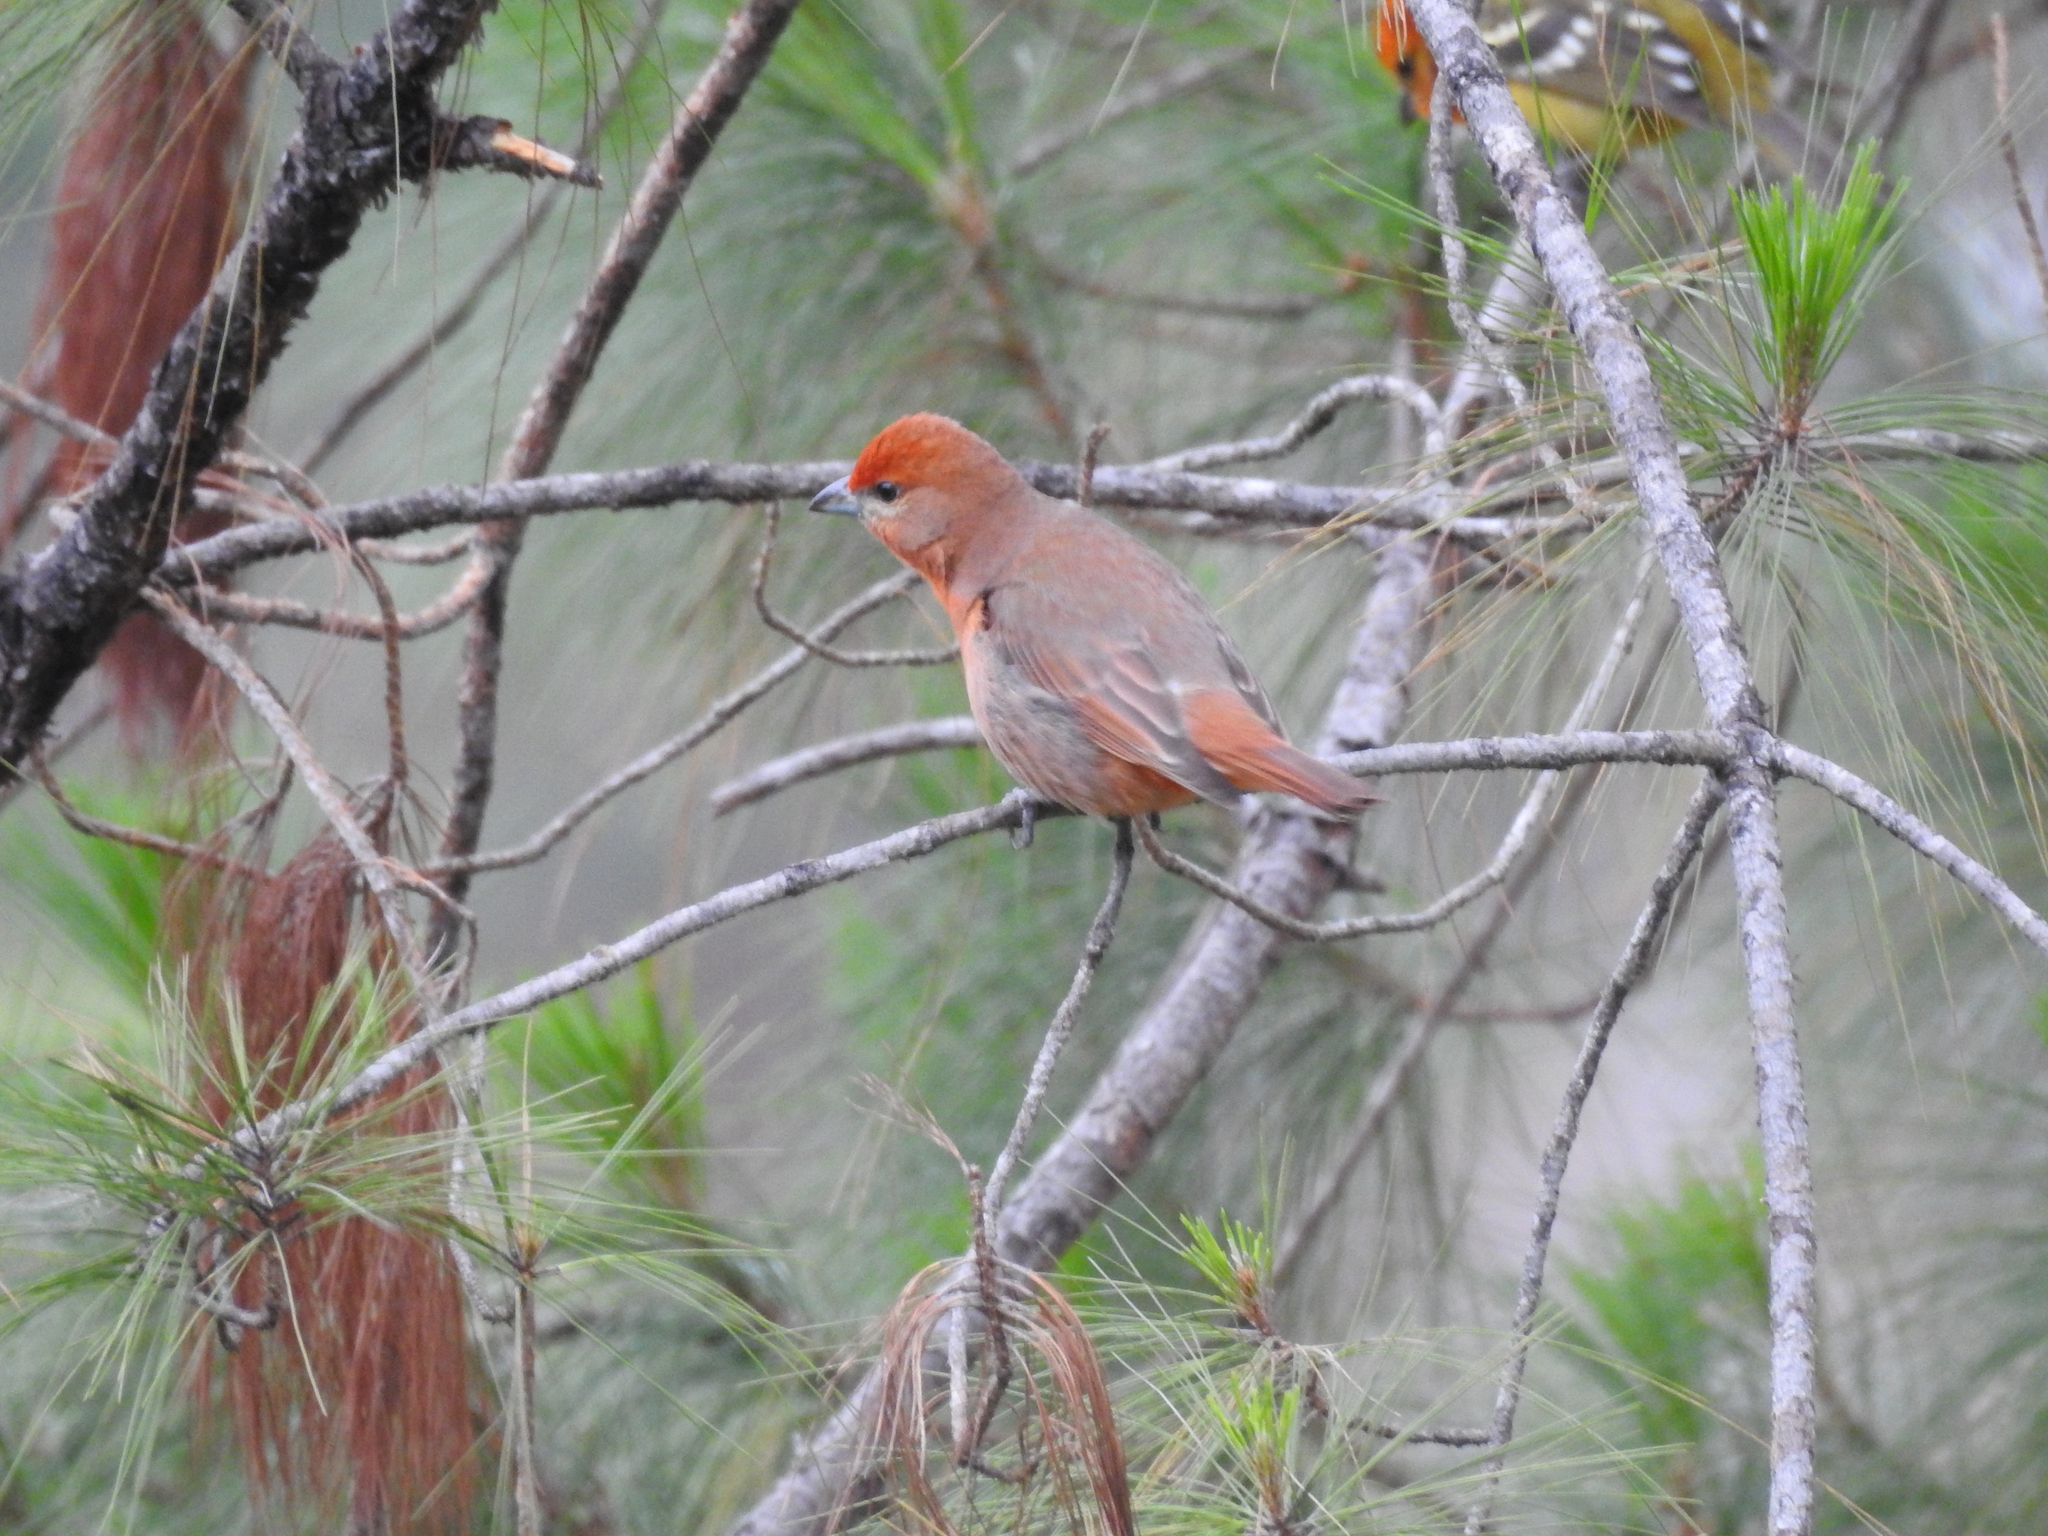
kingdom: Animalia
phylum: Chordata
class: Aves
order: Passeriformes
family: Cardinalidae
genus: Piranga
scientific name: Piranga flava
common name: Red tanager
